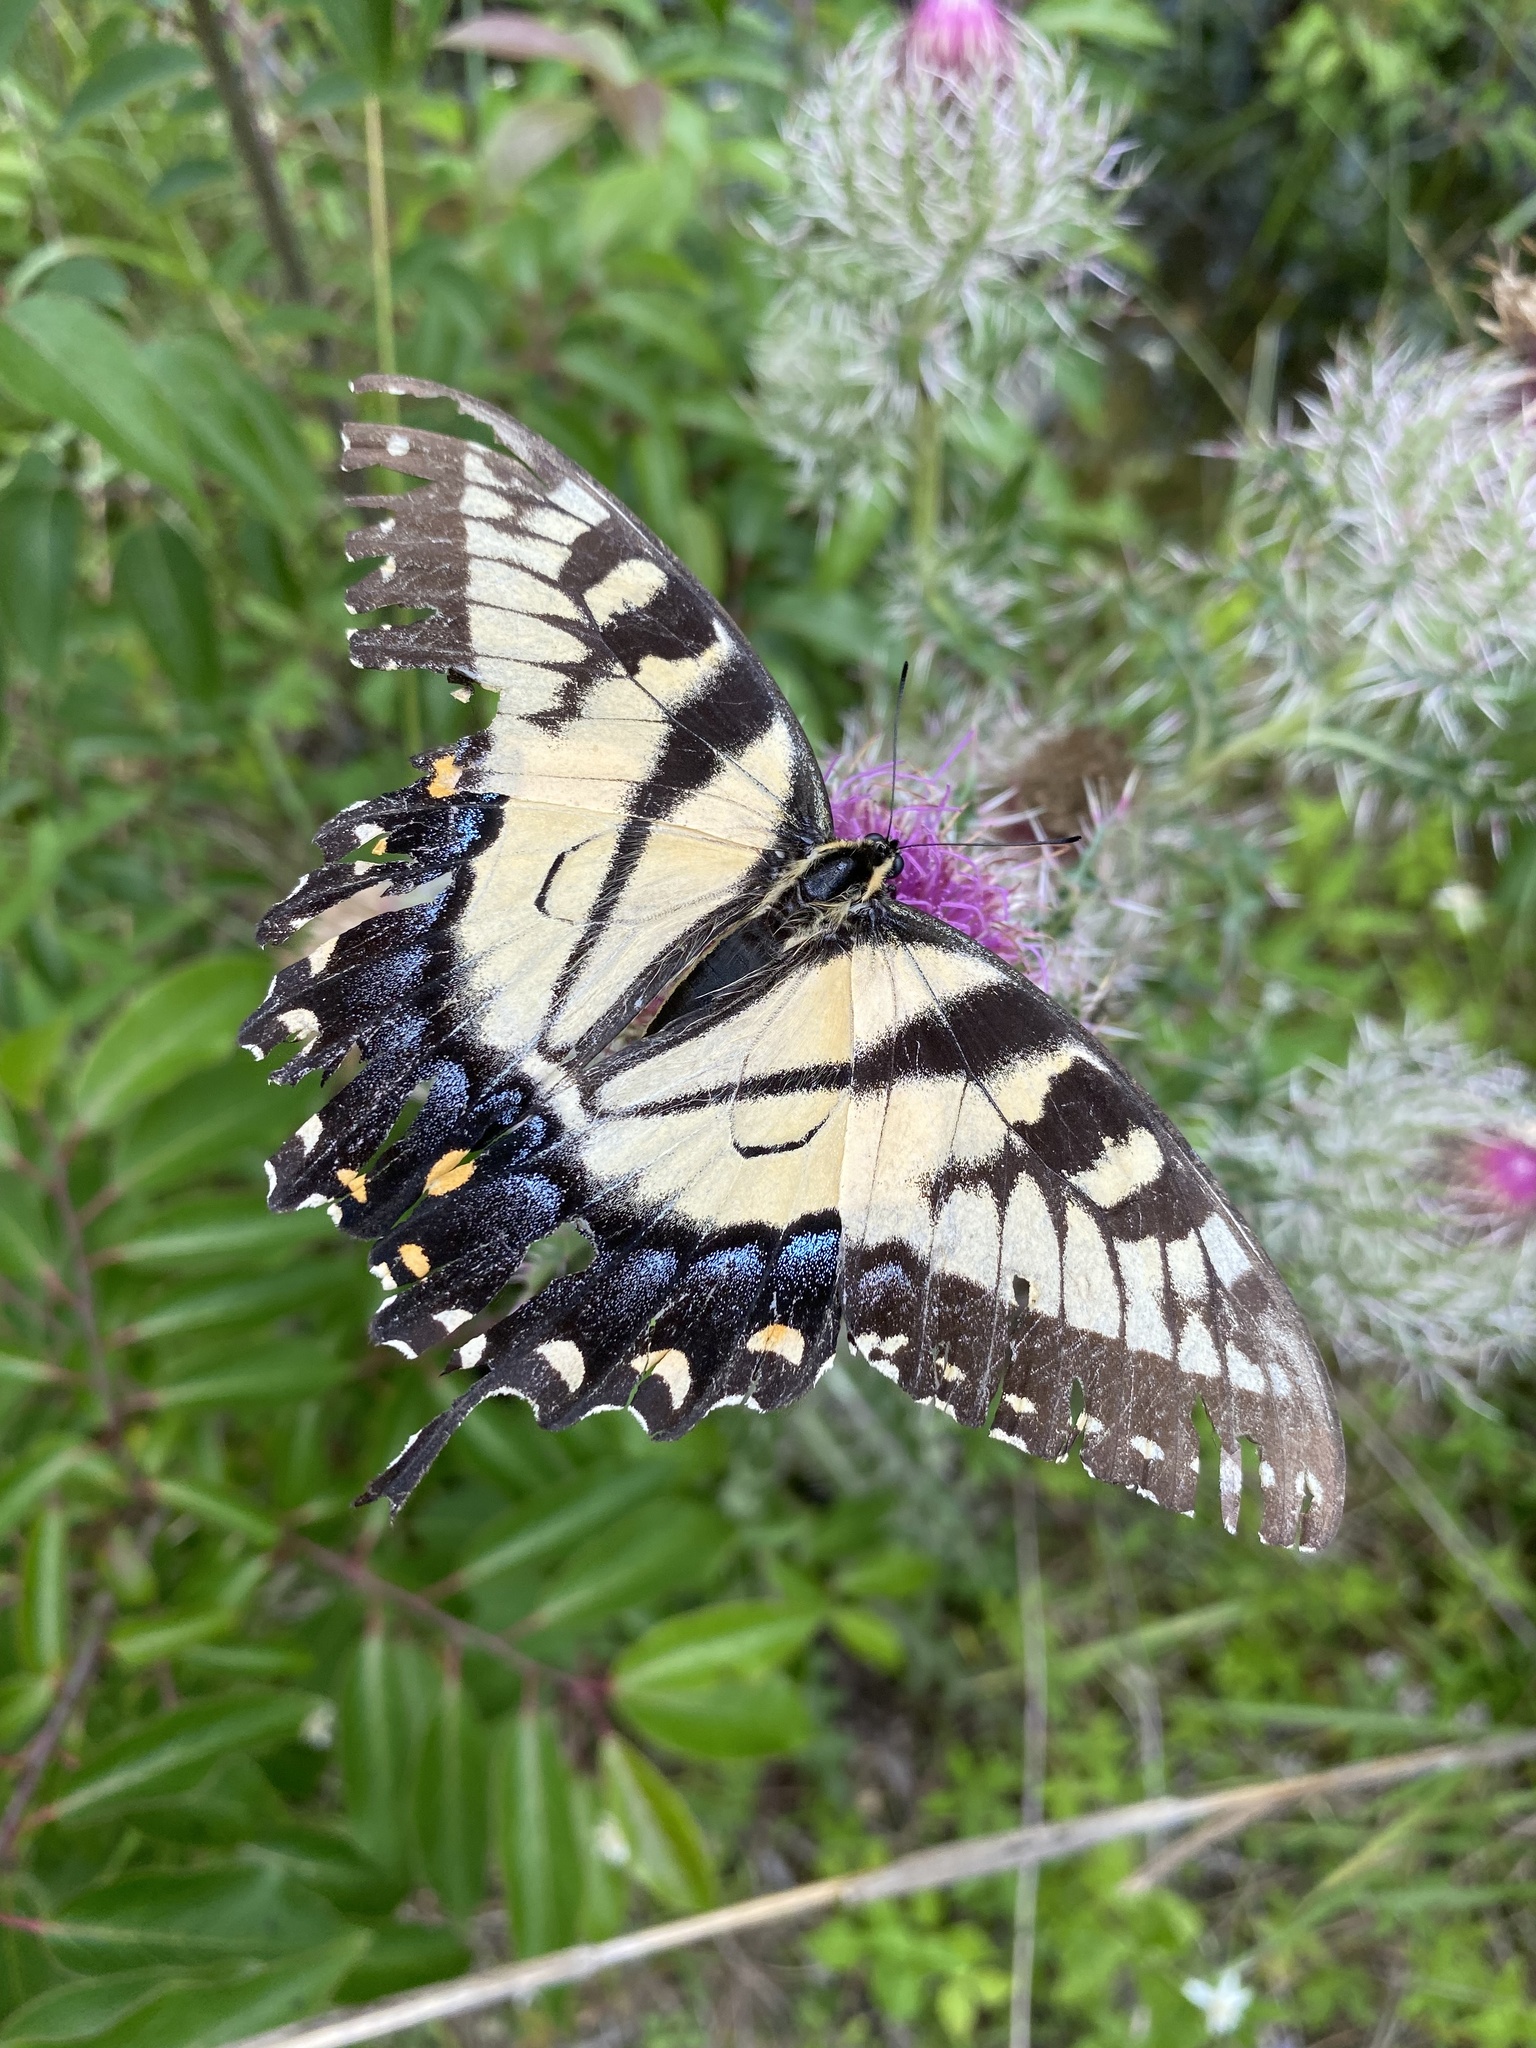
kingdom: Animalia
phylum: Arthropoda
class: Insecta
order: Lepidoptera
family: Papilionidae
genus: Papilio
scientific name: Papilio glaucus
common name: Tiger swallowtail
